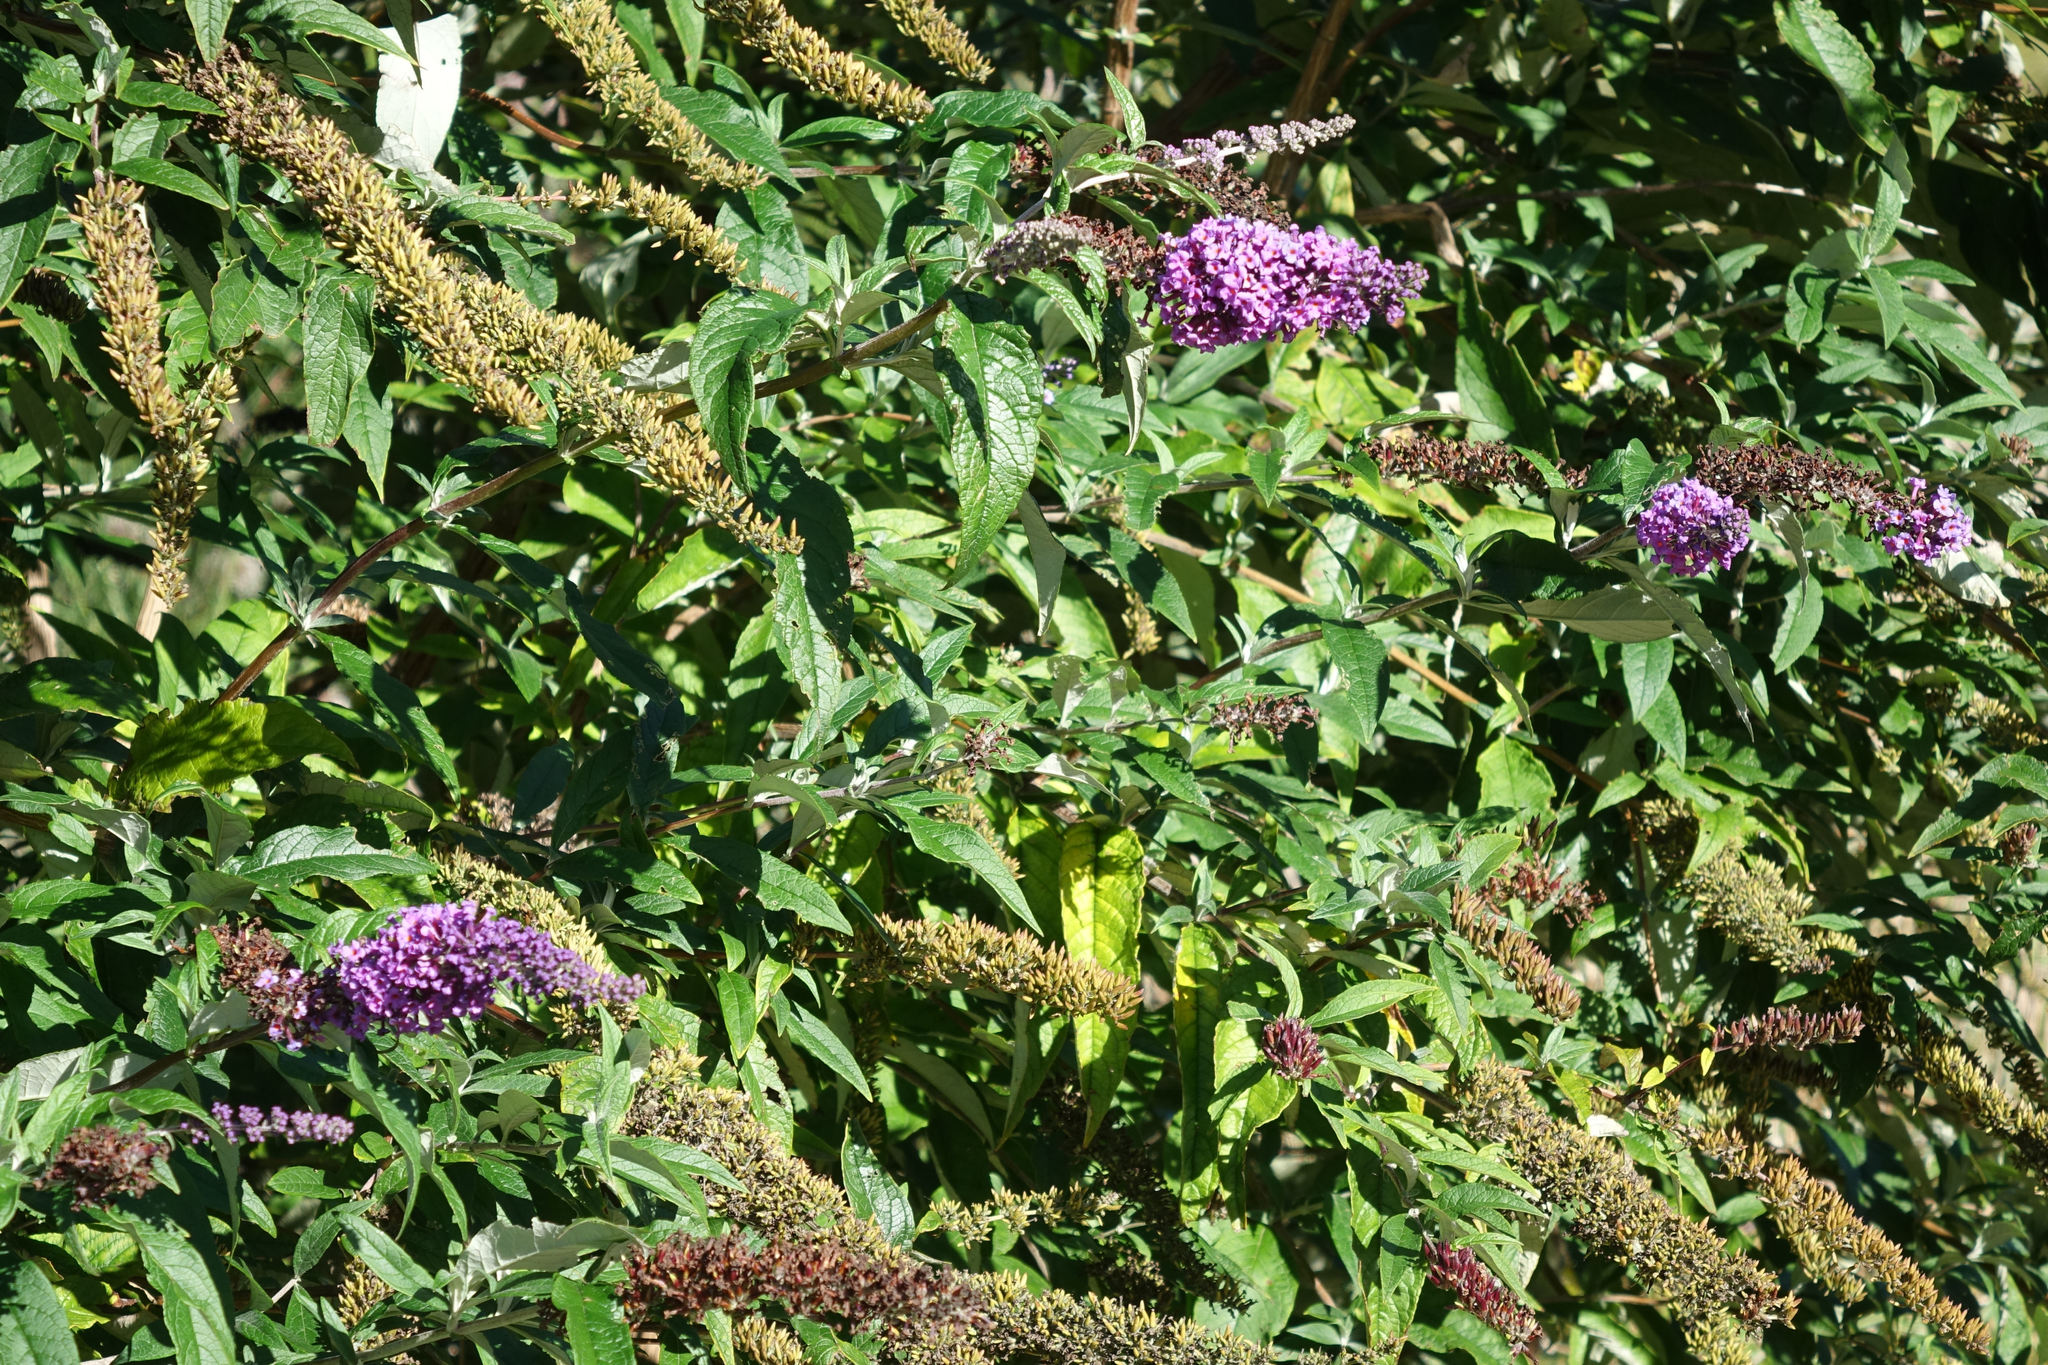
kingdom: Plantae
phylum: Tracheophyta
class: Magnoliopsida
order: Lamiales
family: Scrophulariaceae
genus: Buddleja
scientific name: Buddleja davidii
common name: Butterfly-bush
